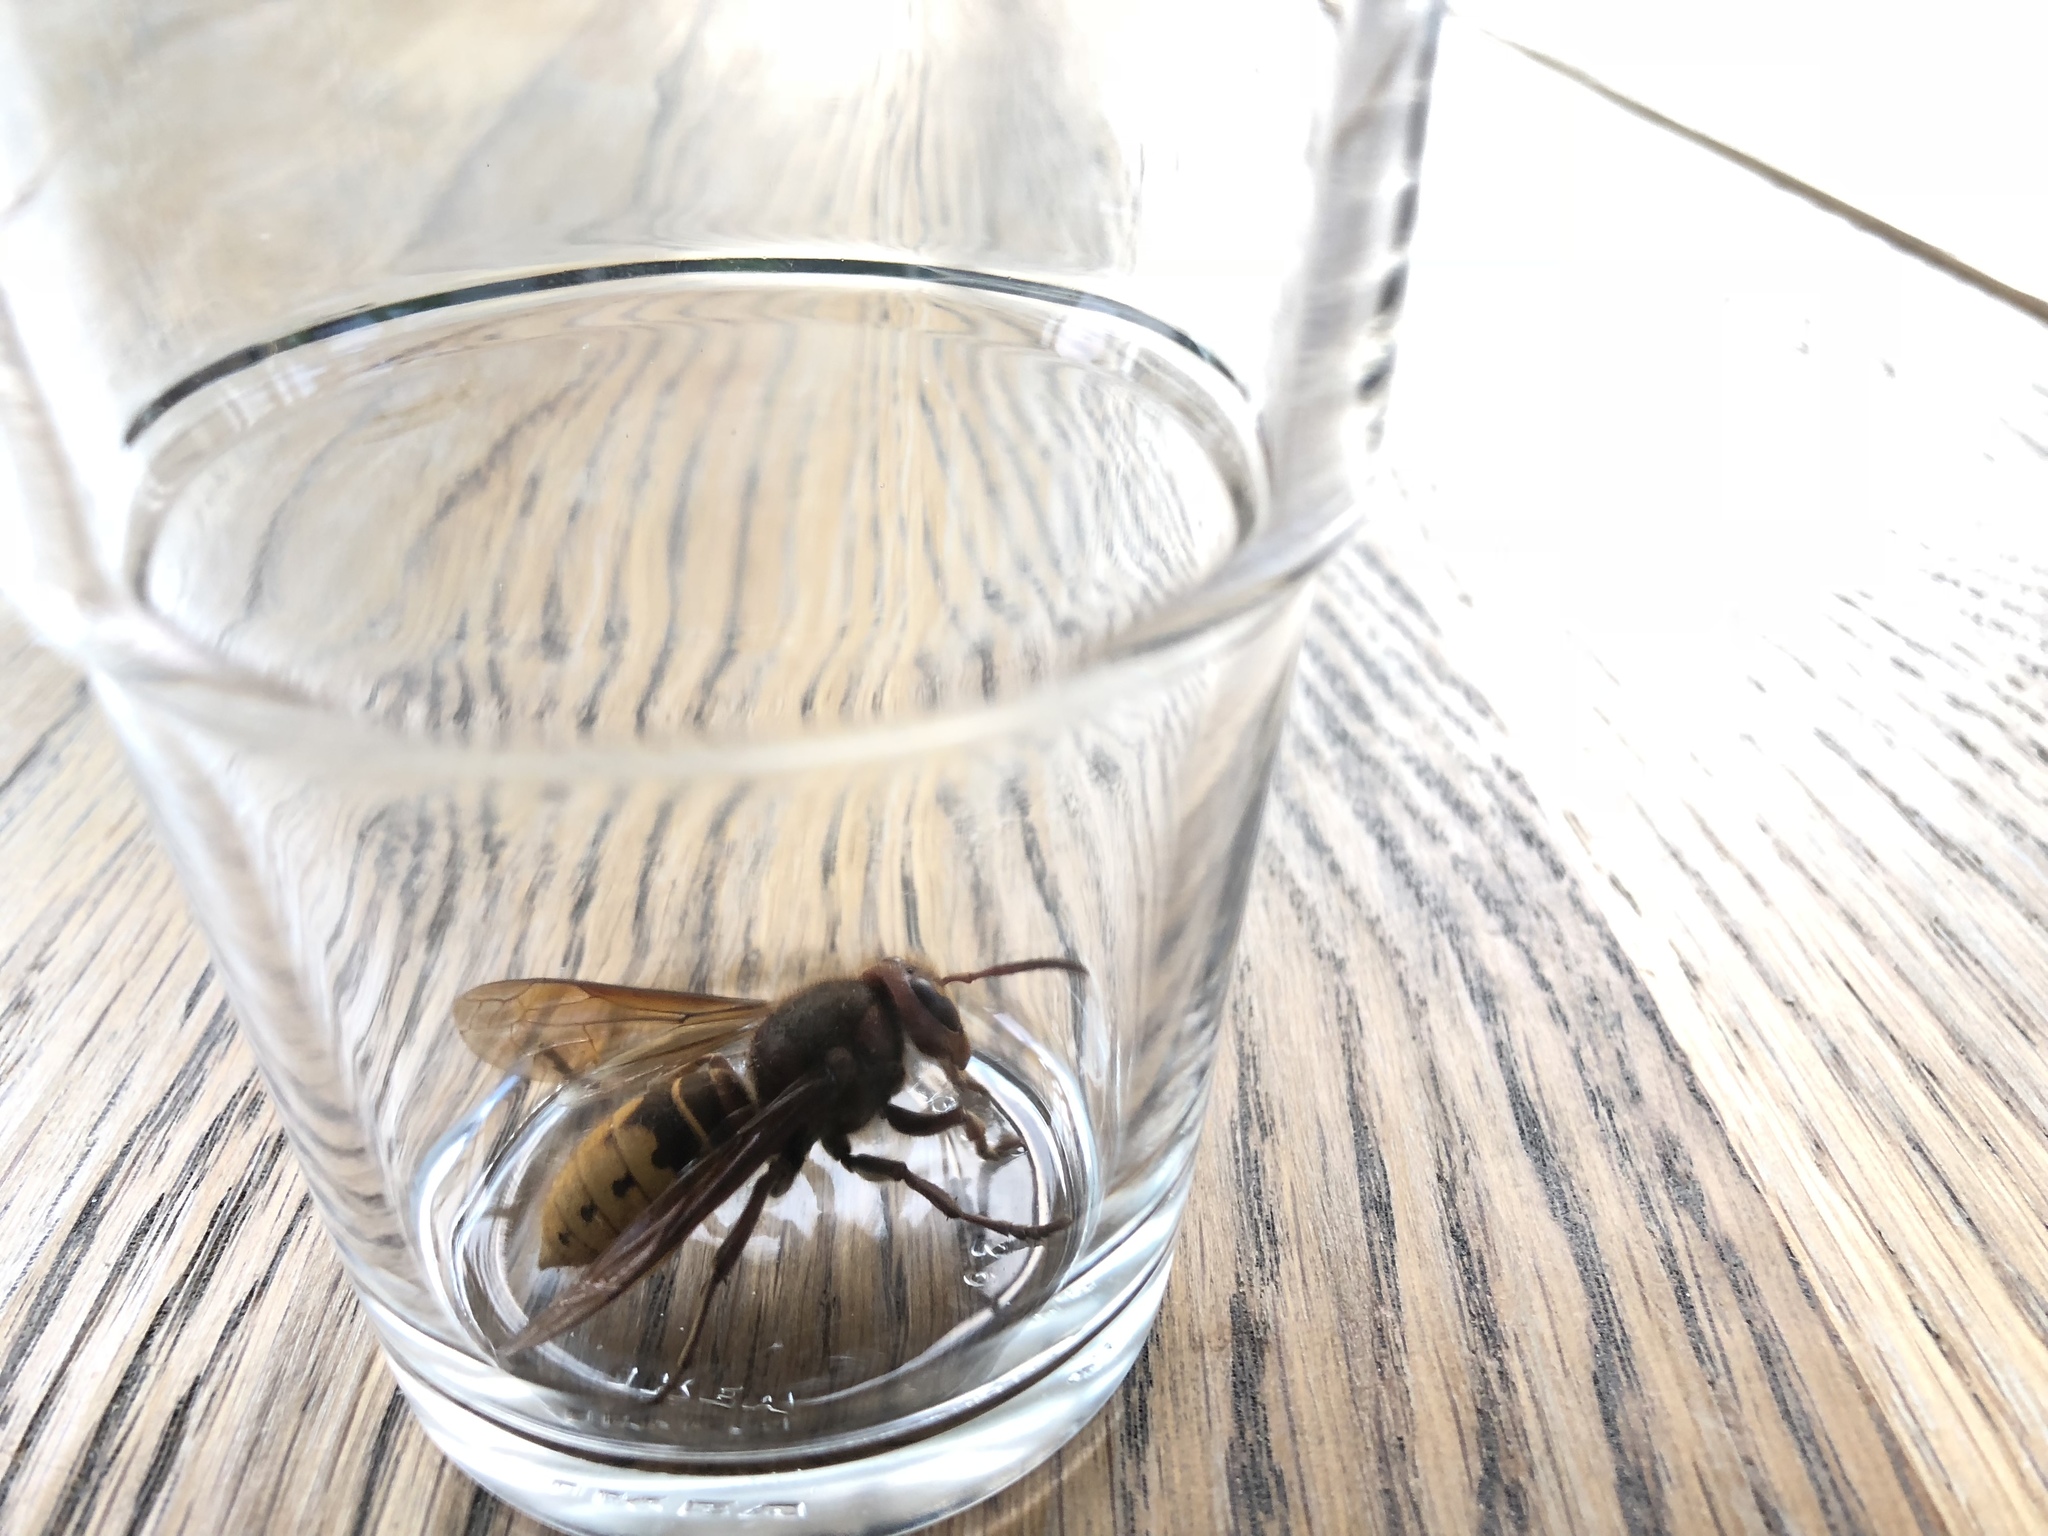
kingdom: Animalia
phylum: Arthropoda
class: Insecta
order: Hymenoptera
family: Vespidae
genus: Vespa
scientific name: Vespa crabro
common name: Hornet
